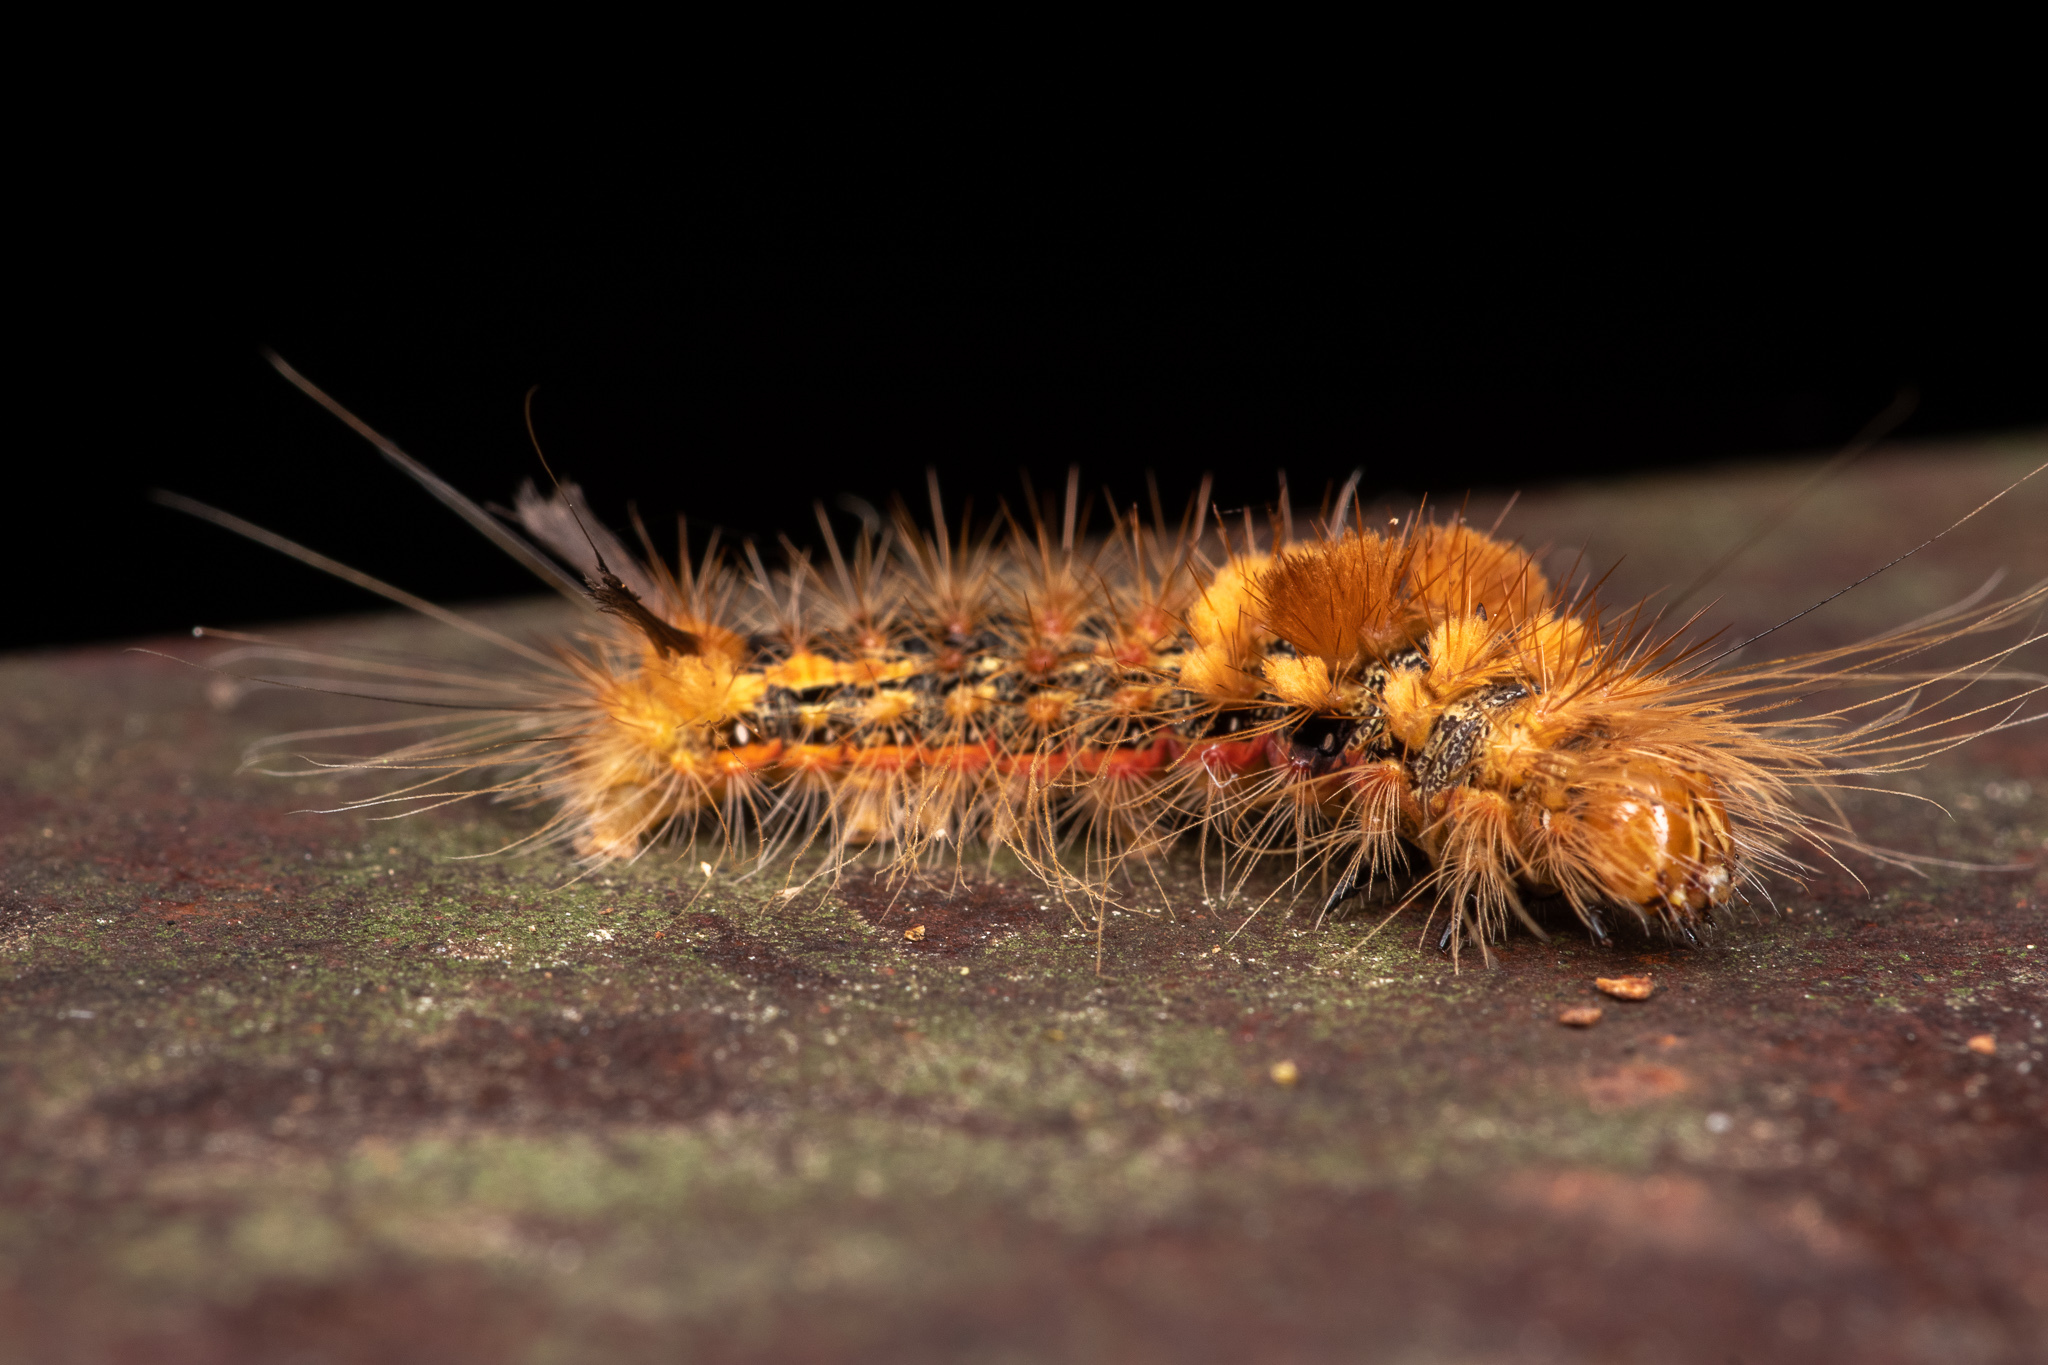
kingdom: Animalia
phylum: Arthropoda
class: Insecta
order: Lepidoptera
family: Noctuidae
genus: Acronicta
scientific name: Acronicta impleta
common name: Powdered dagger
